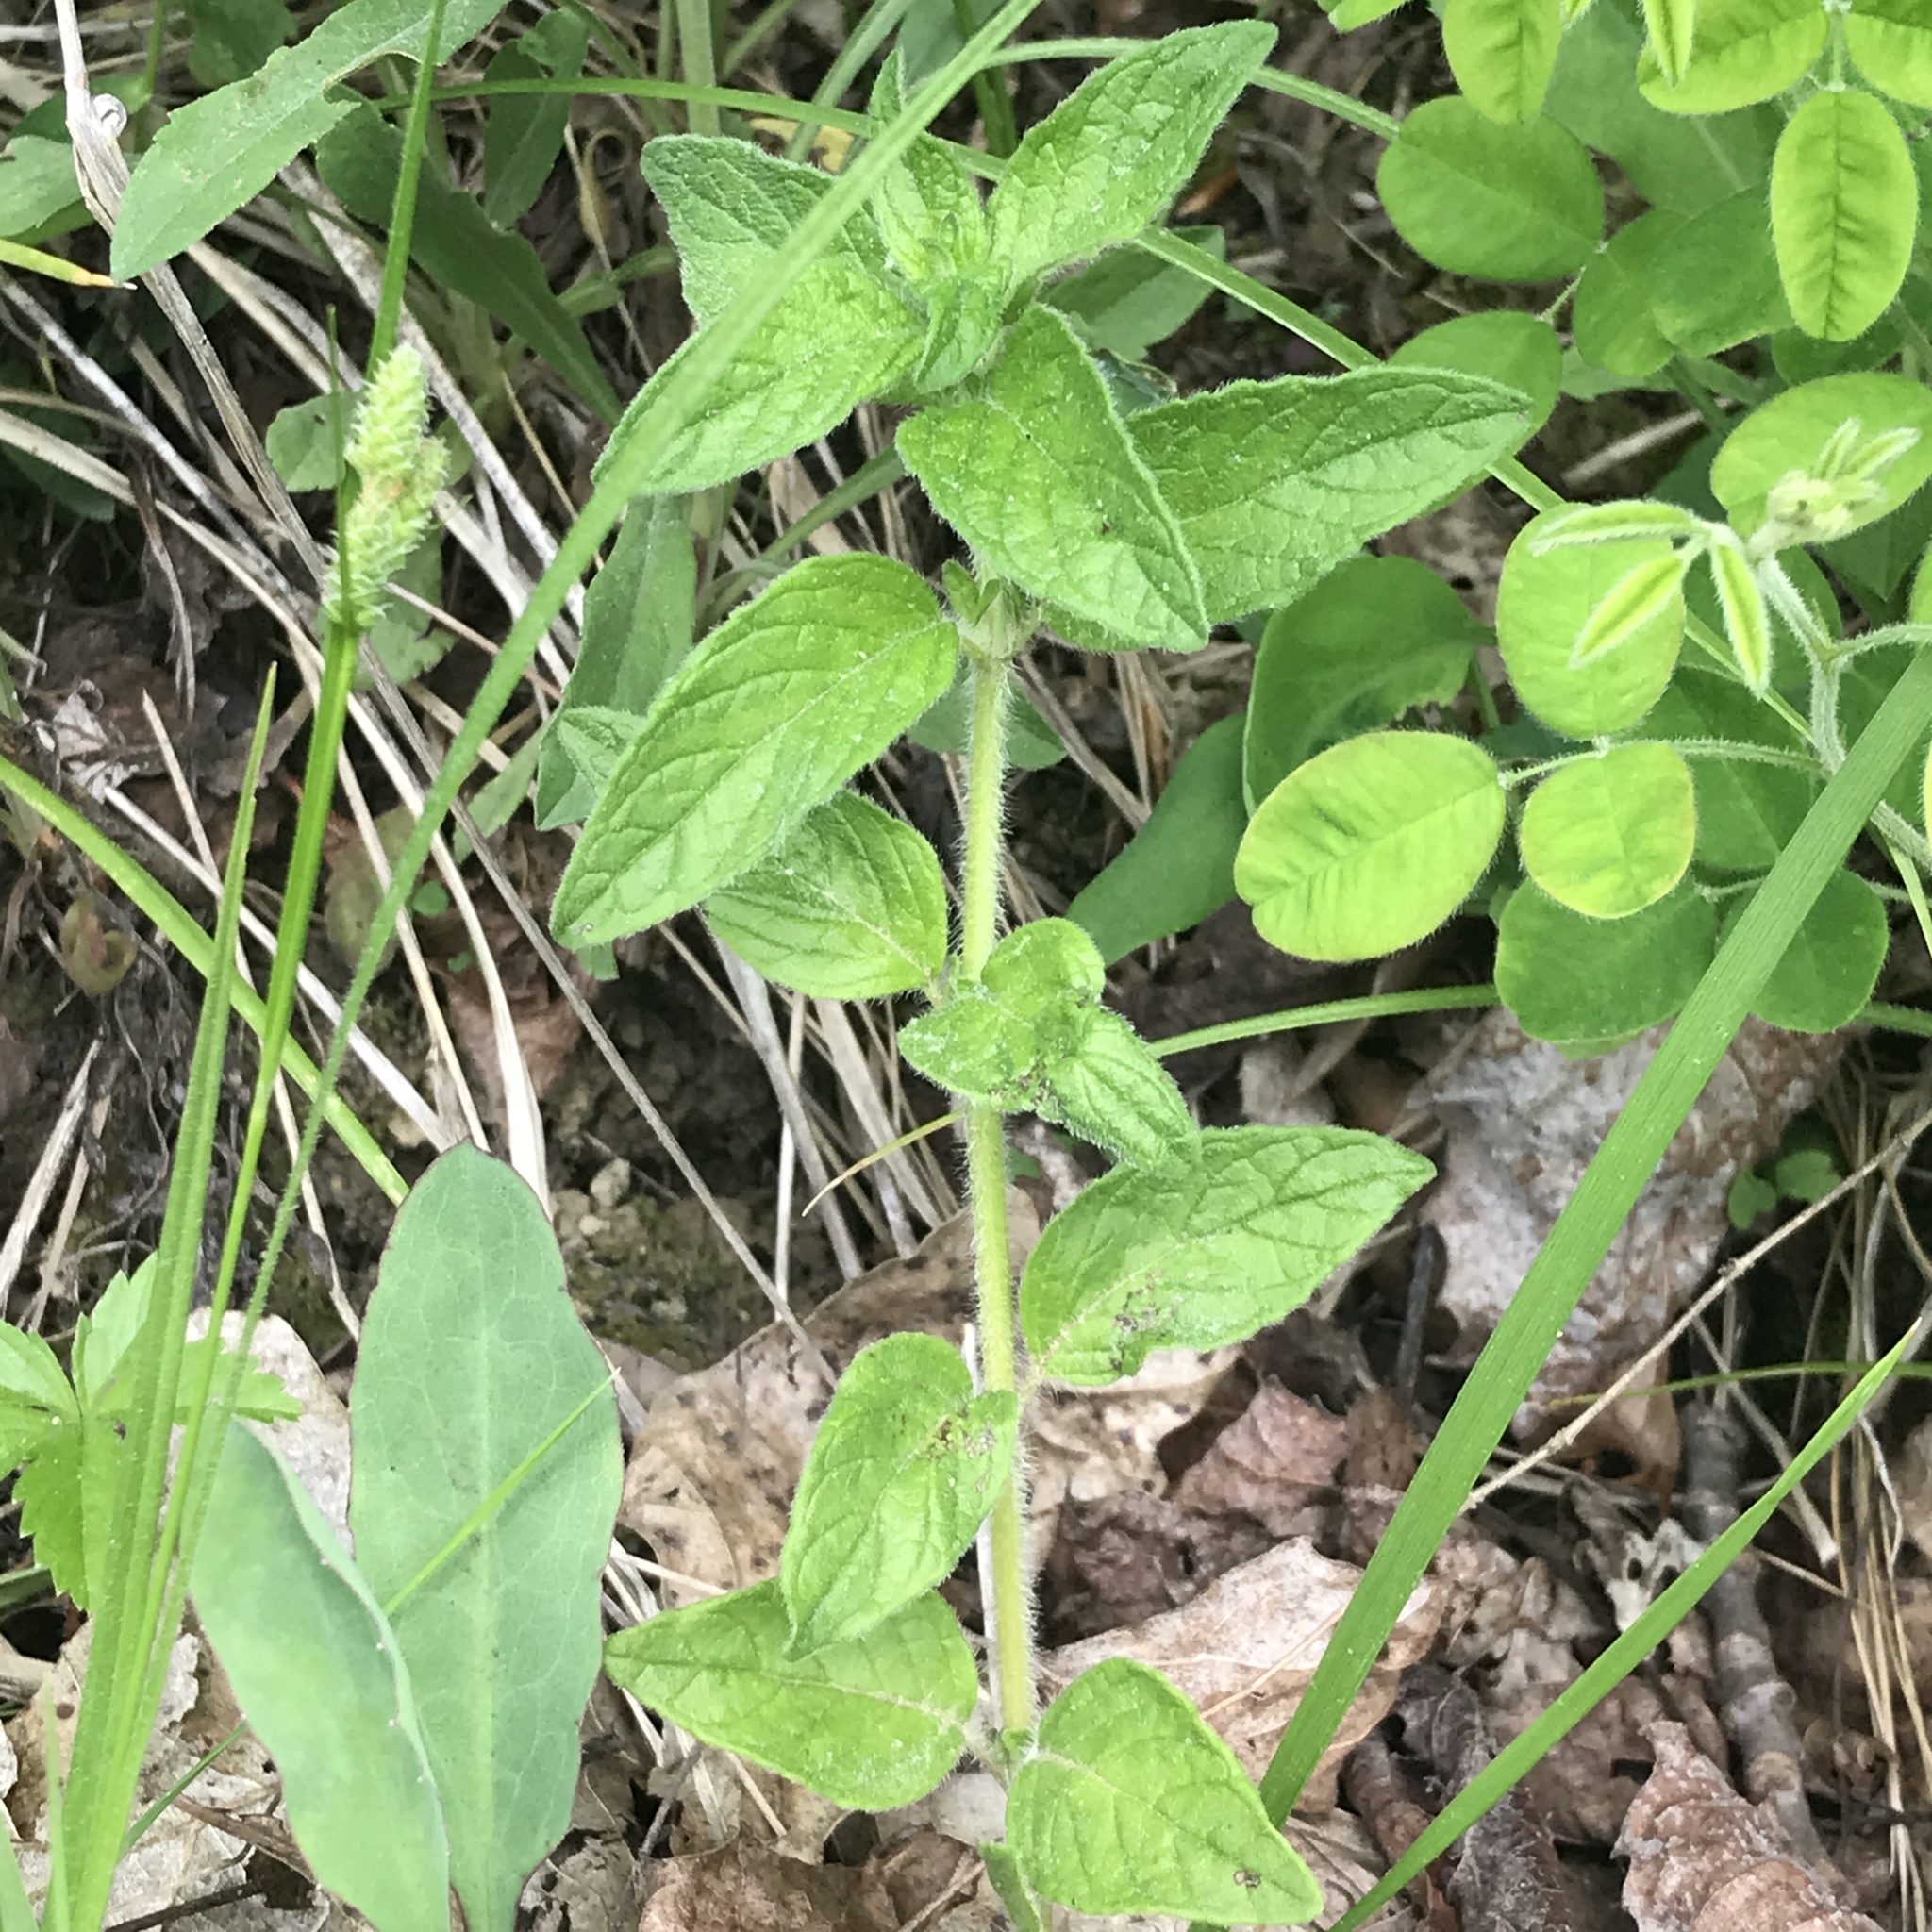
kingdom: Plantae
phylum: Tracheophyta
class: Magnoliopsida
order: Lamiales
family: Lamiaceae
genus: Clinopodium
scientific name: Clinopodium vulgare
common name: Wild basil
